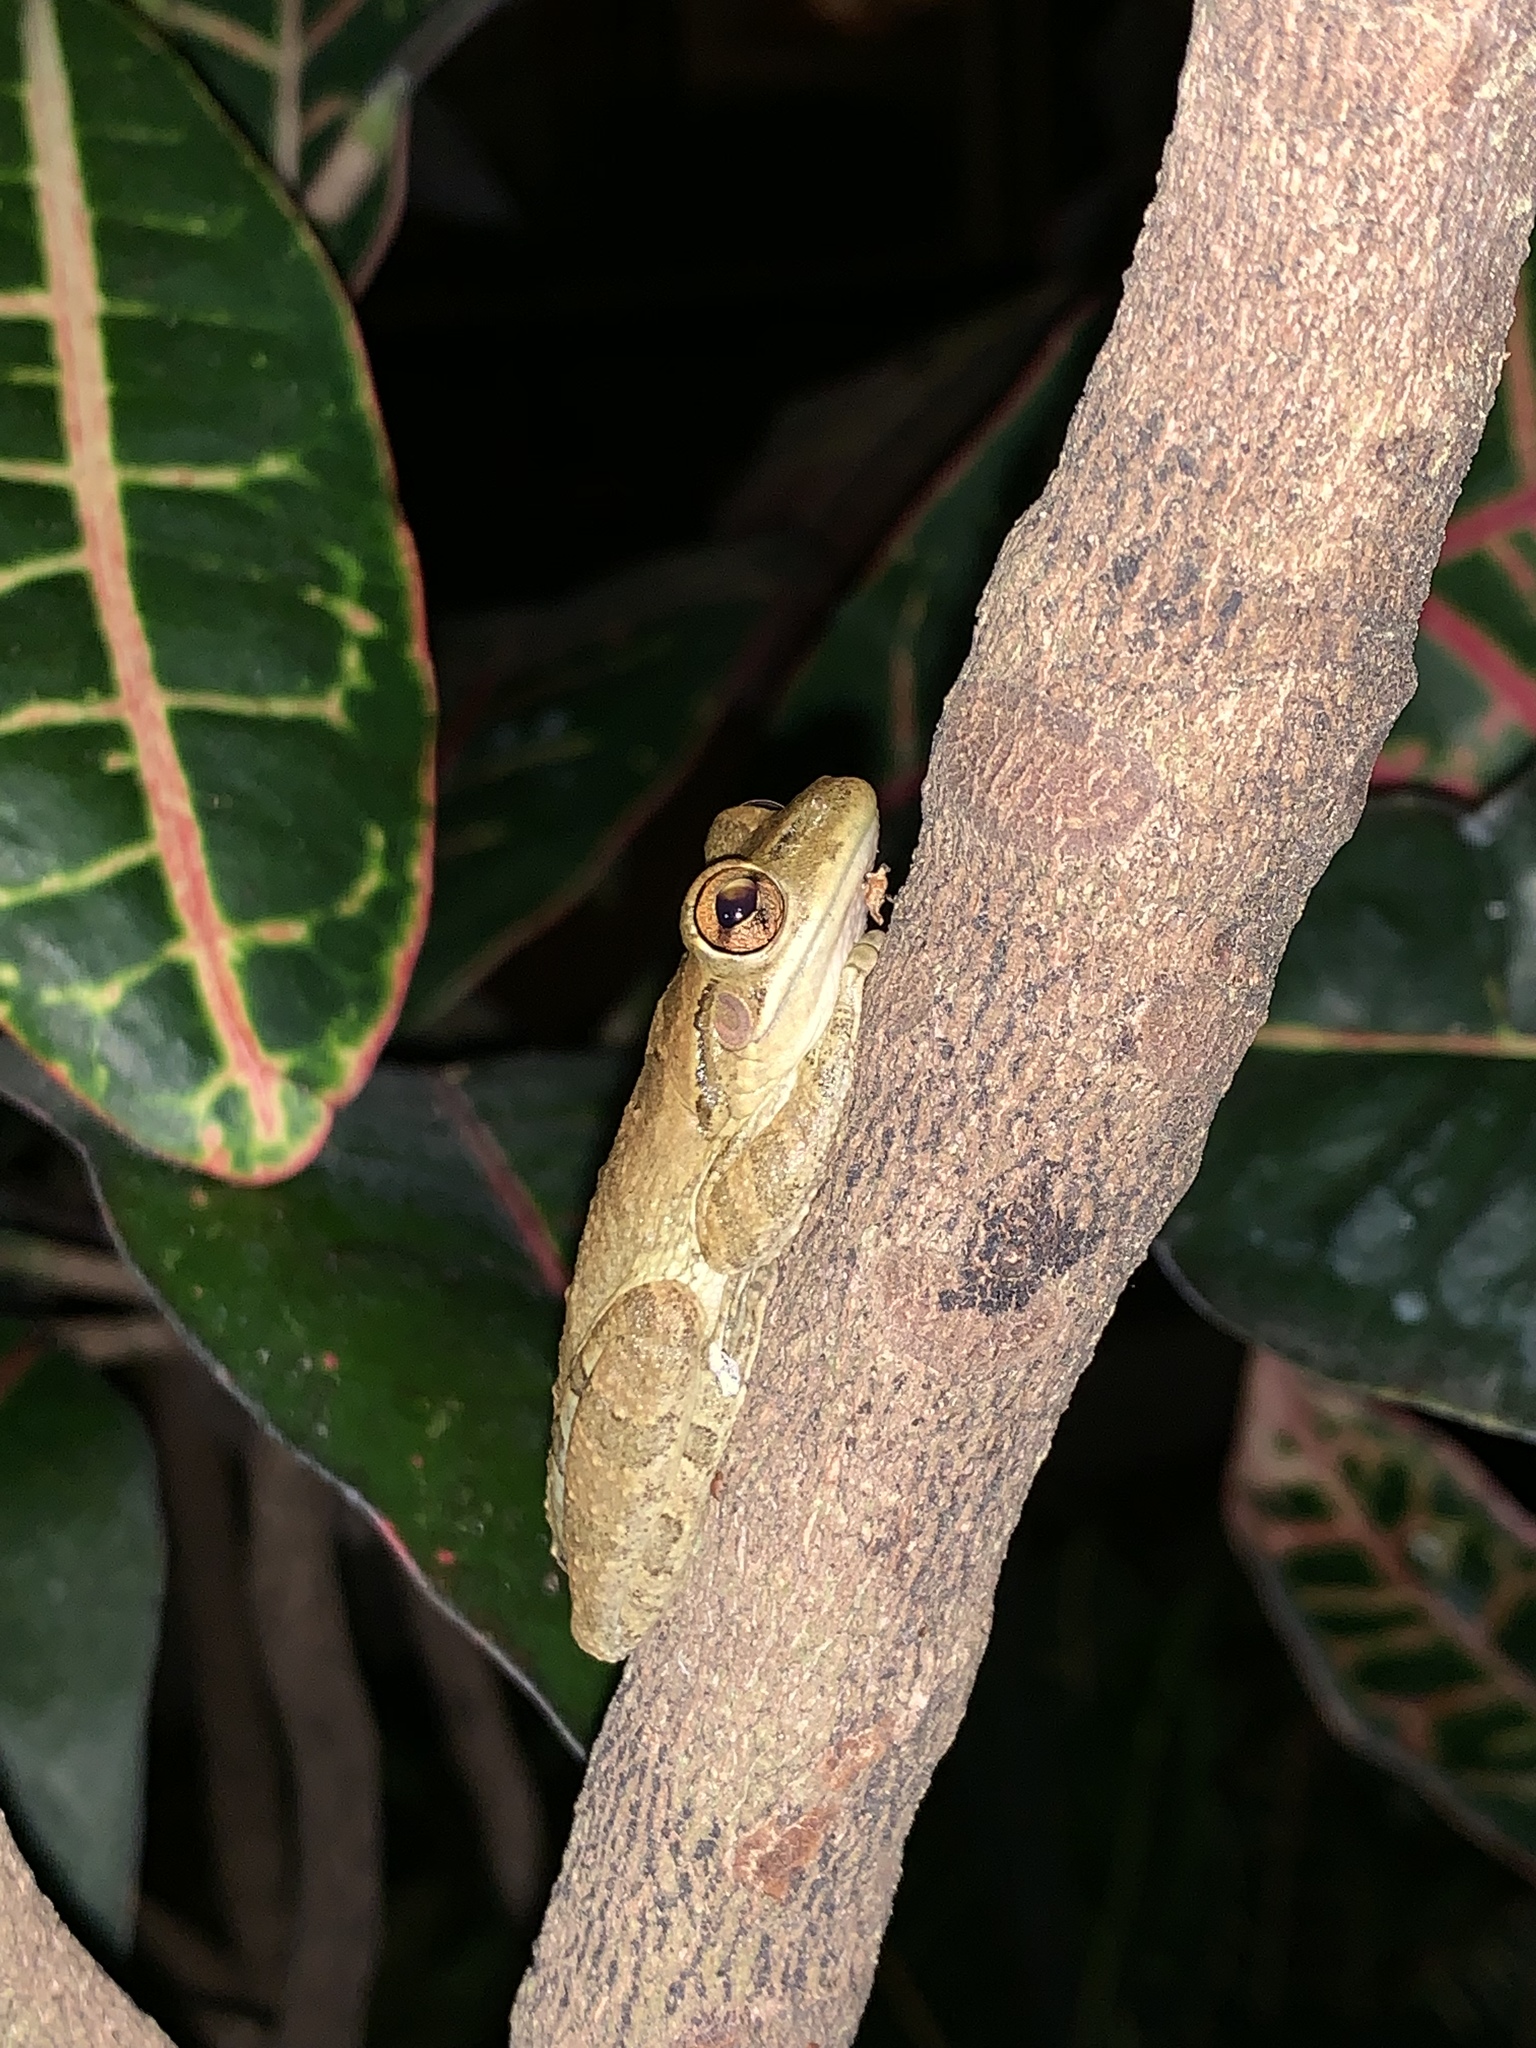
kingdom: Animalia
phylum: Chordata
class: Amphibia
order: Anura
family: Hylidae
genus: Osteopilus
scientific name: Osteopilus septentrionalis
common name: Cuban treefrog
